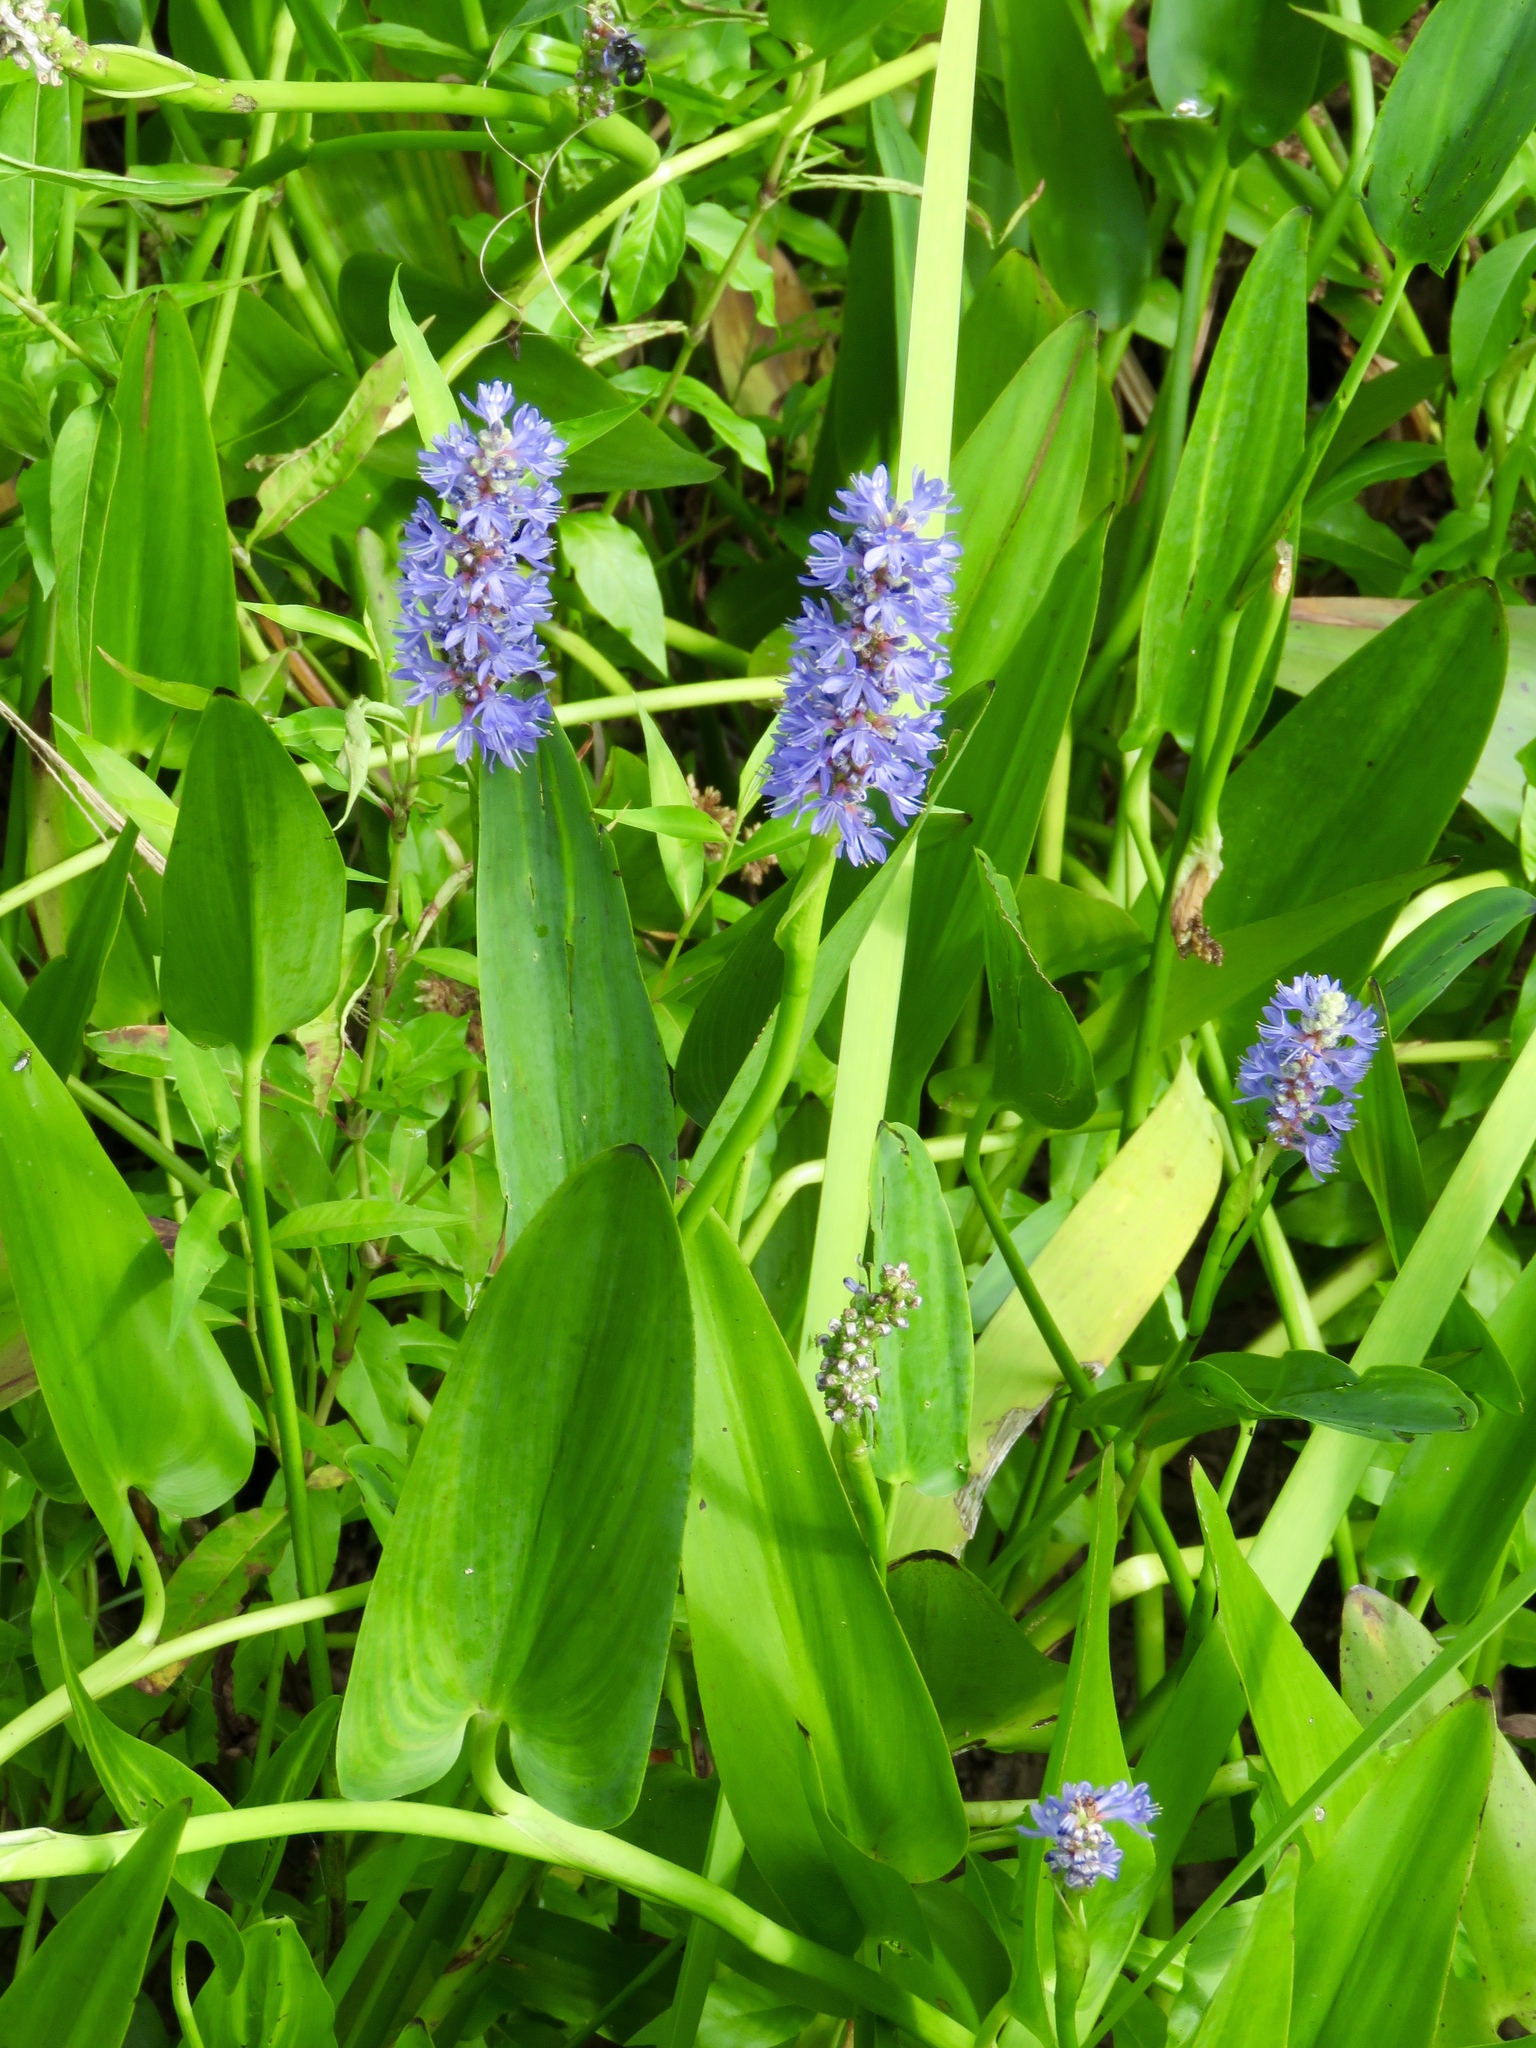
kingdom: Plantae
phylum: Tracheophyta
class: Liliopsida
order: Commelinales
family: Pontederiaceae
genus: Pontederia
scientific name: Pontederia cordata
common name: Pickerelweed
